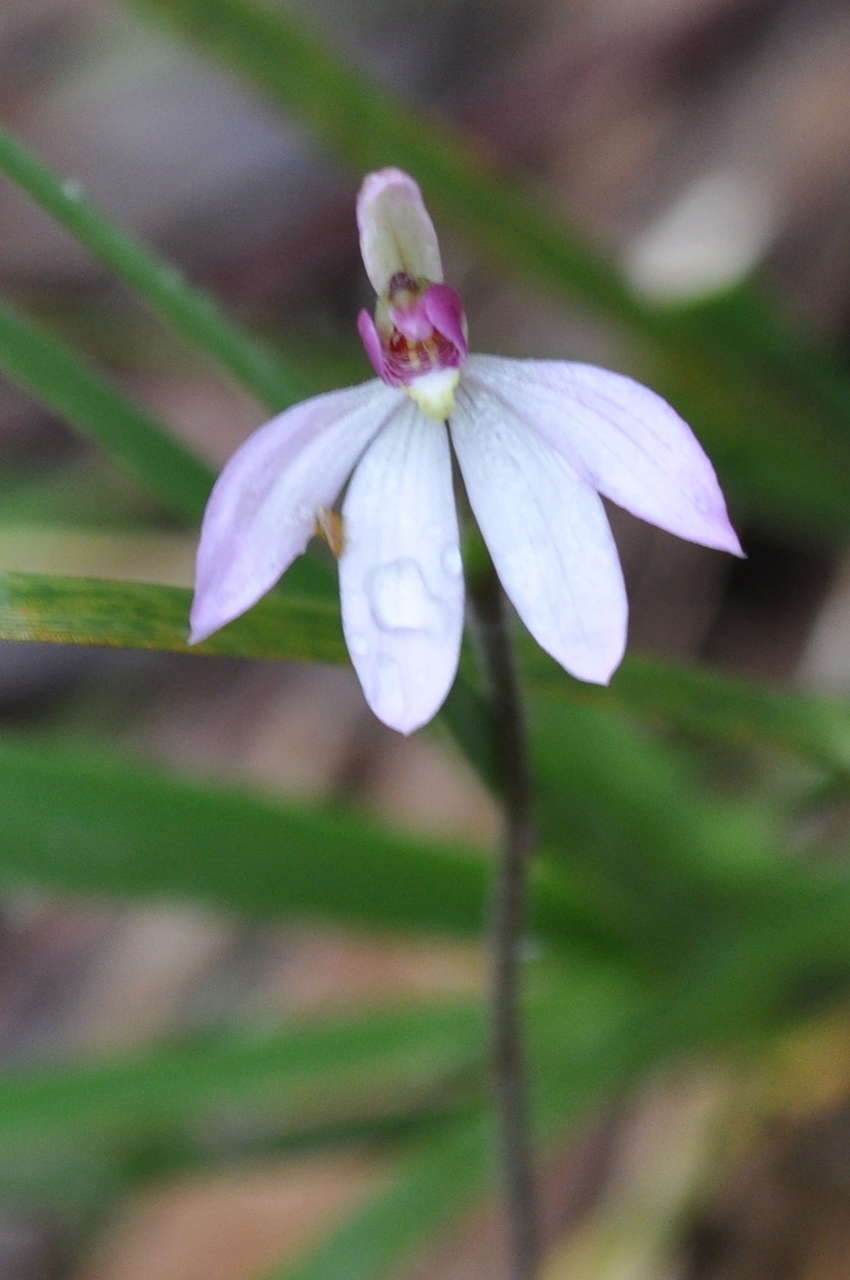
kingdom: Plantae
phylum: Tracheophyta
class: Liliopsida
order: Asparagales
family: Orchidaceae
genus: Caladenia
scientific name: Caladenia carnea
